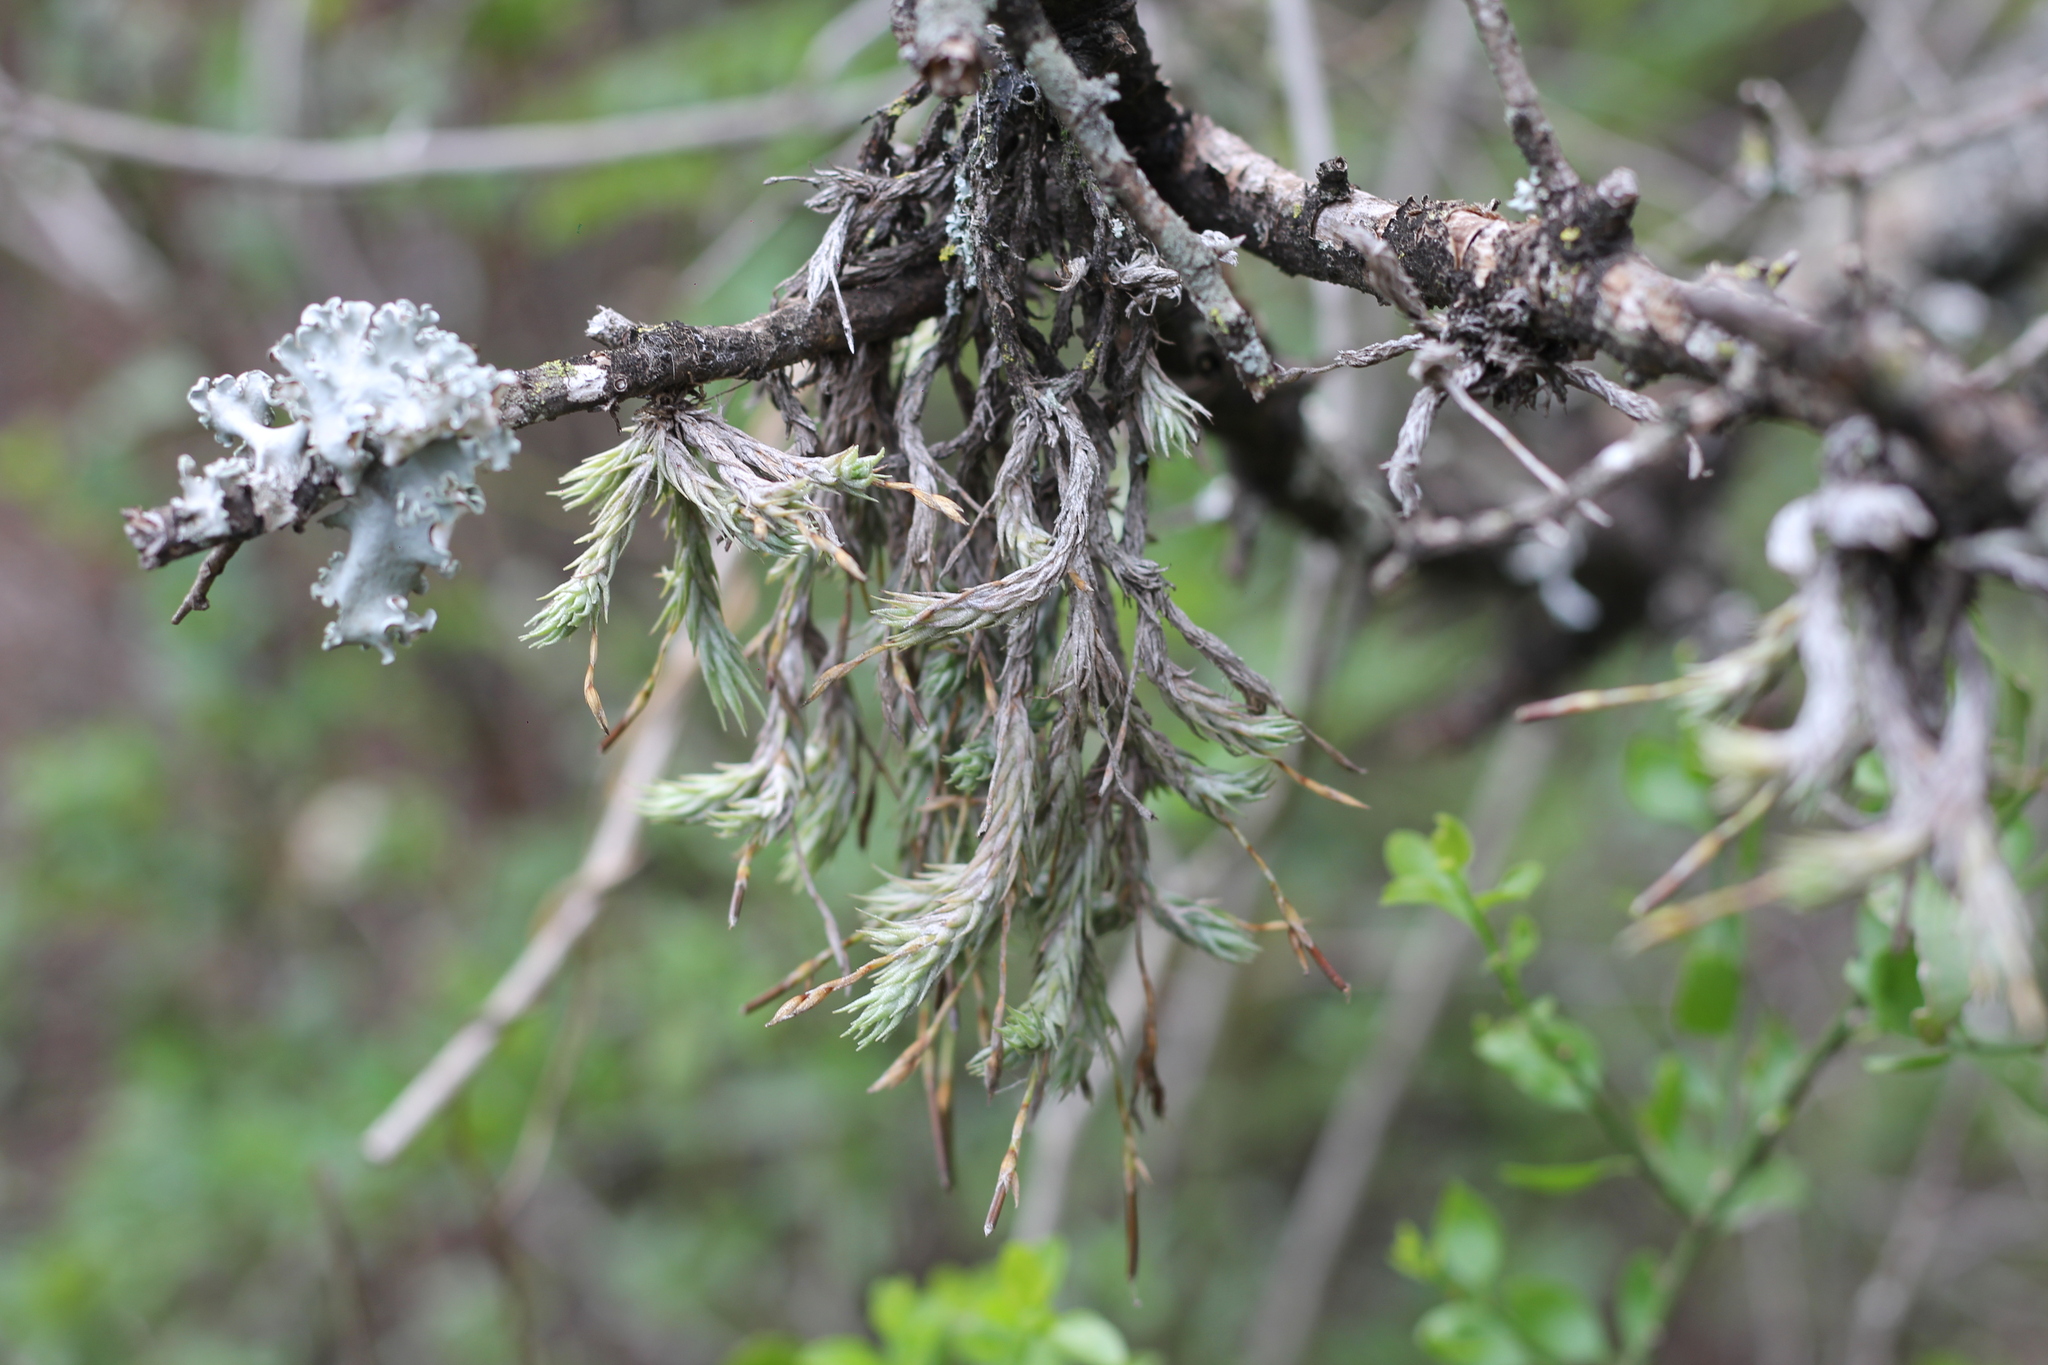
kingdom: Plantae
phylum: Tracheophyta
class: Liliopsida
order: Poales
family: Bromeliaceae
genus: Tillandsia
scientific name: Tillandsia tricholepis
